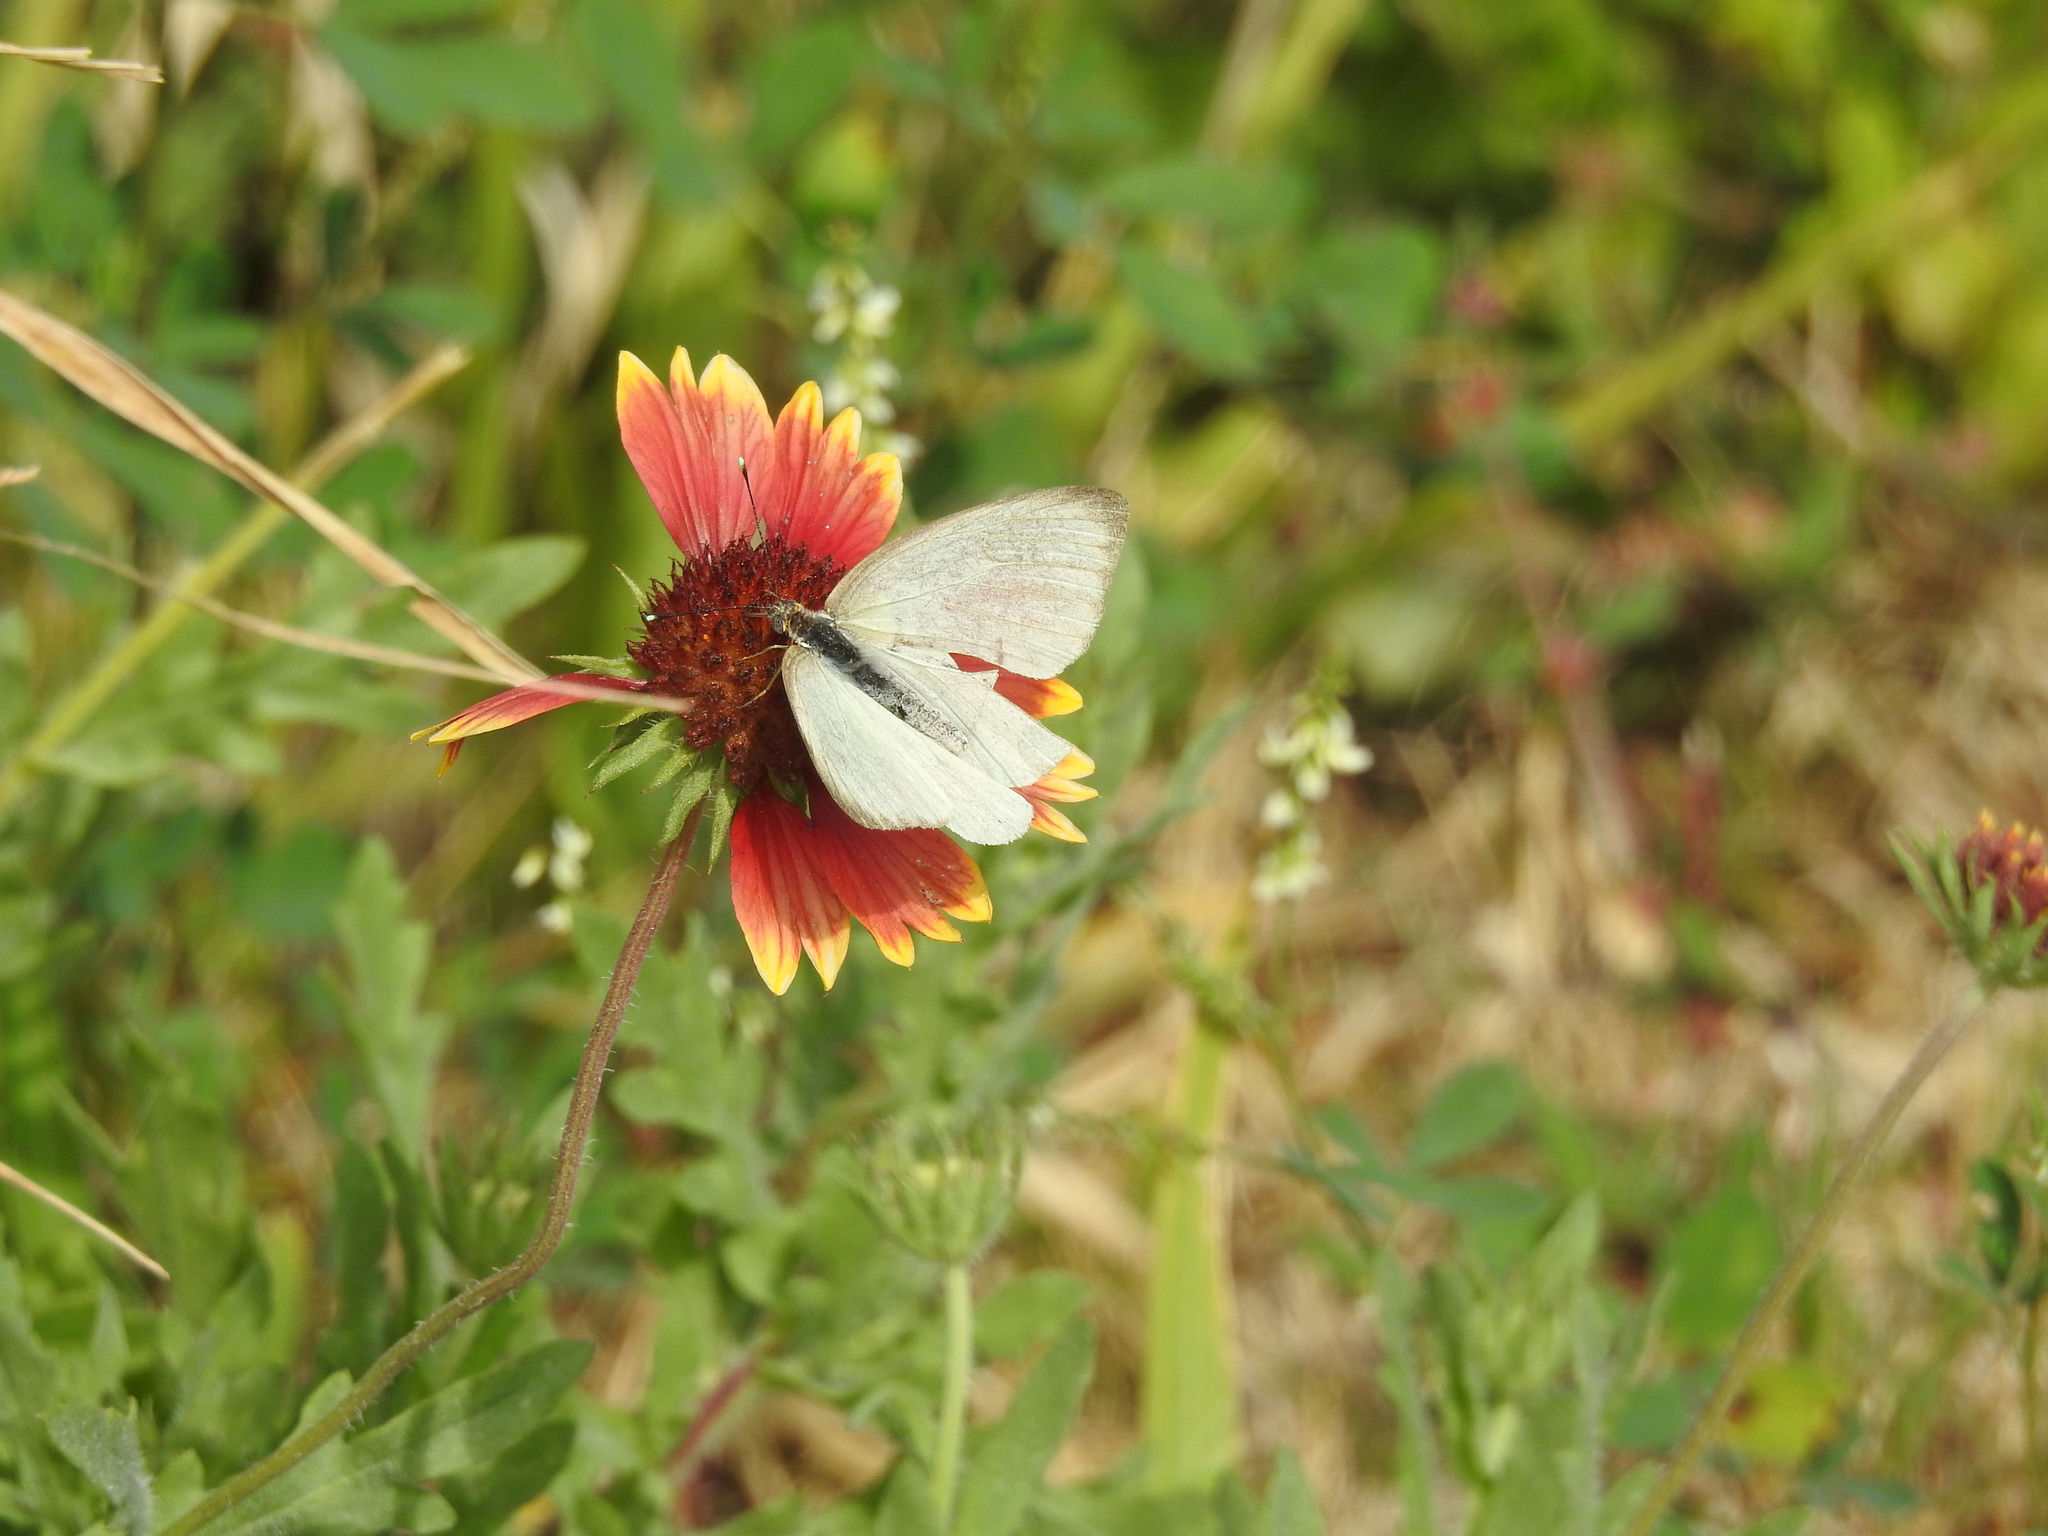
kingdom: Animalia
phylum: Arthropoda
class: Insecta
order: Lepidoptera
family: Pieridae
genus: Ascia
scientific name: Ascia monuste
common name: Great southern white
